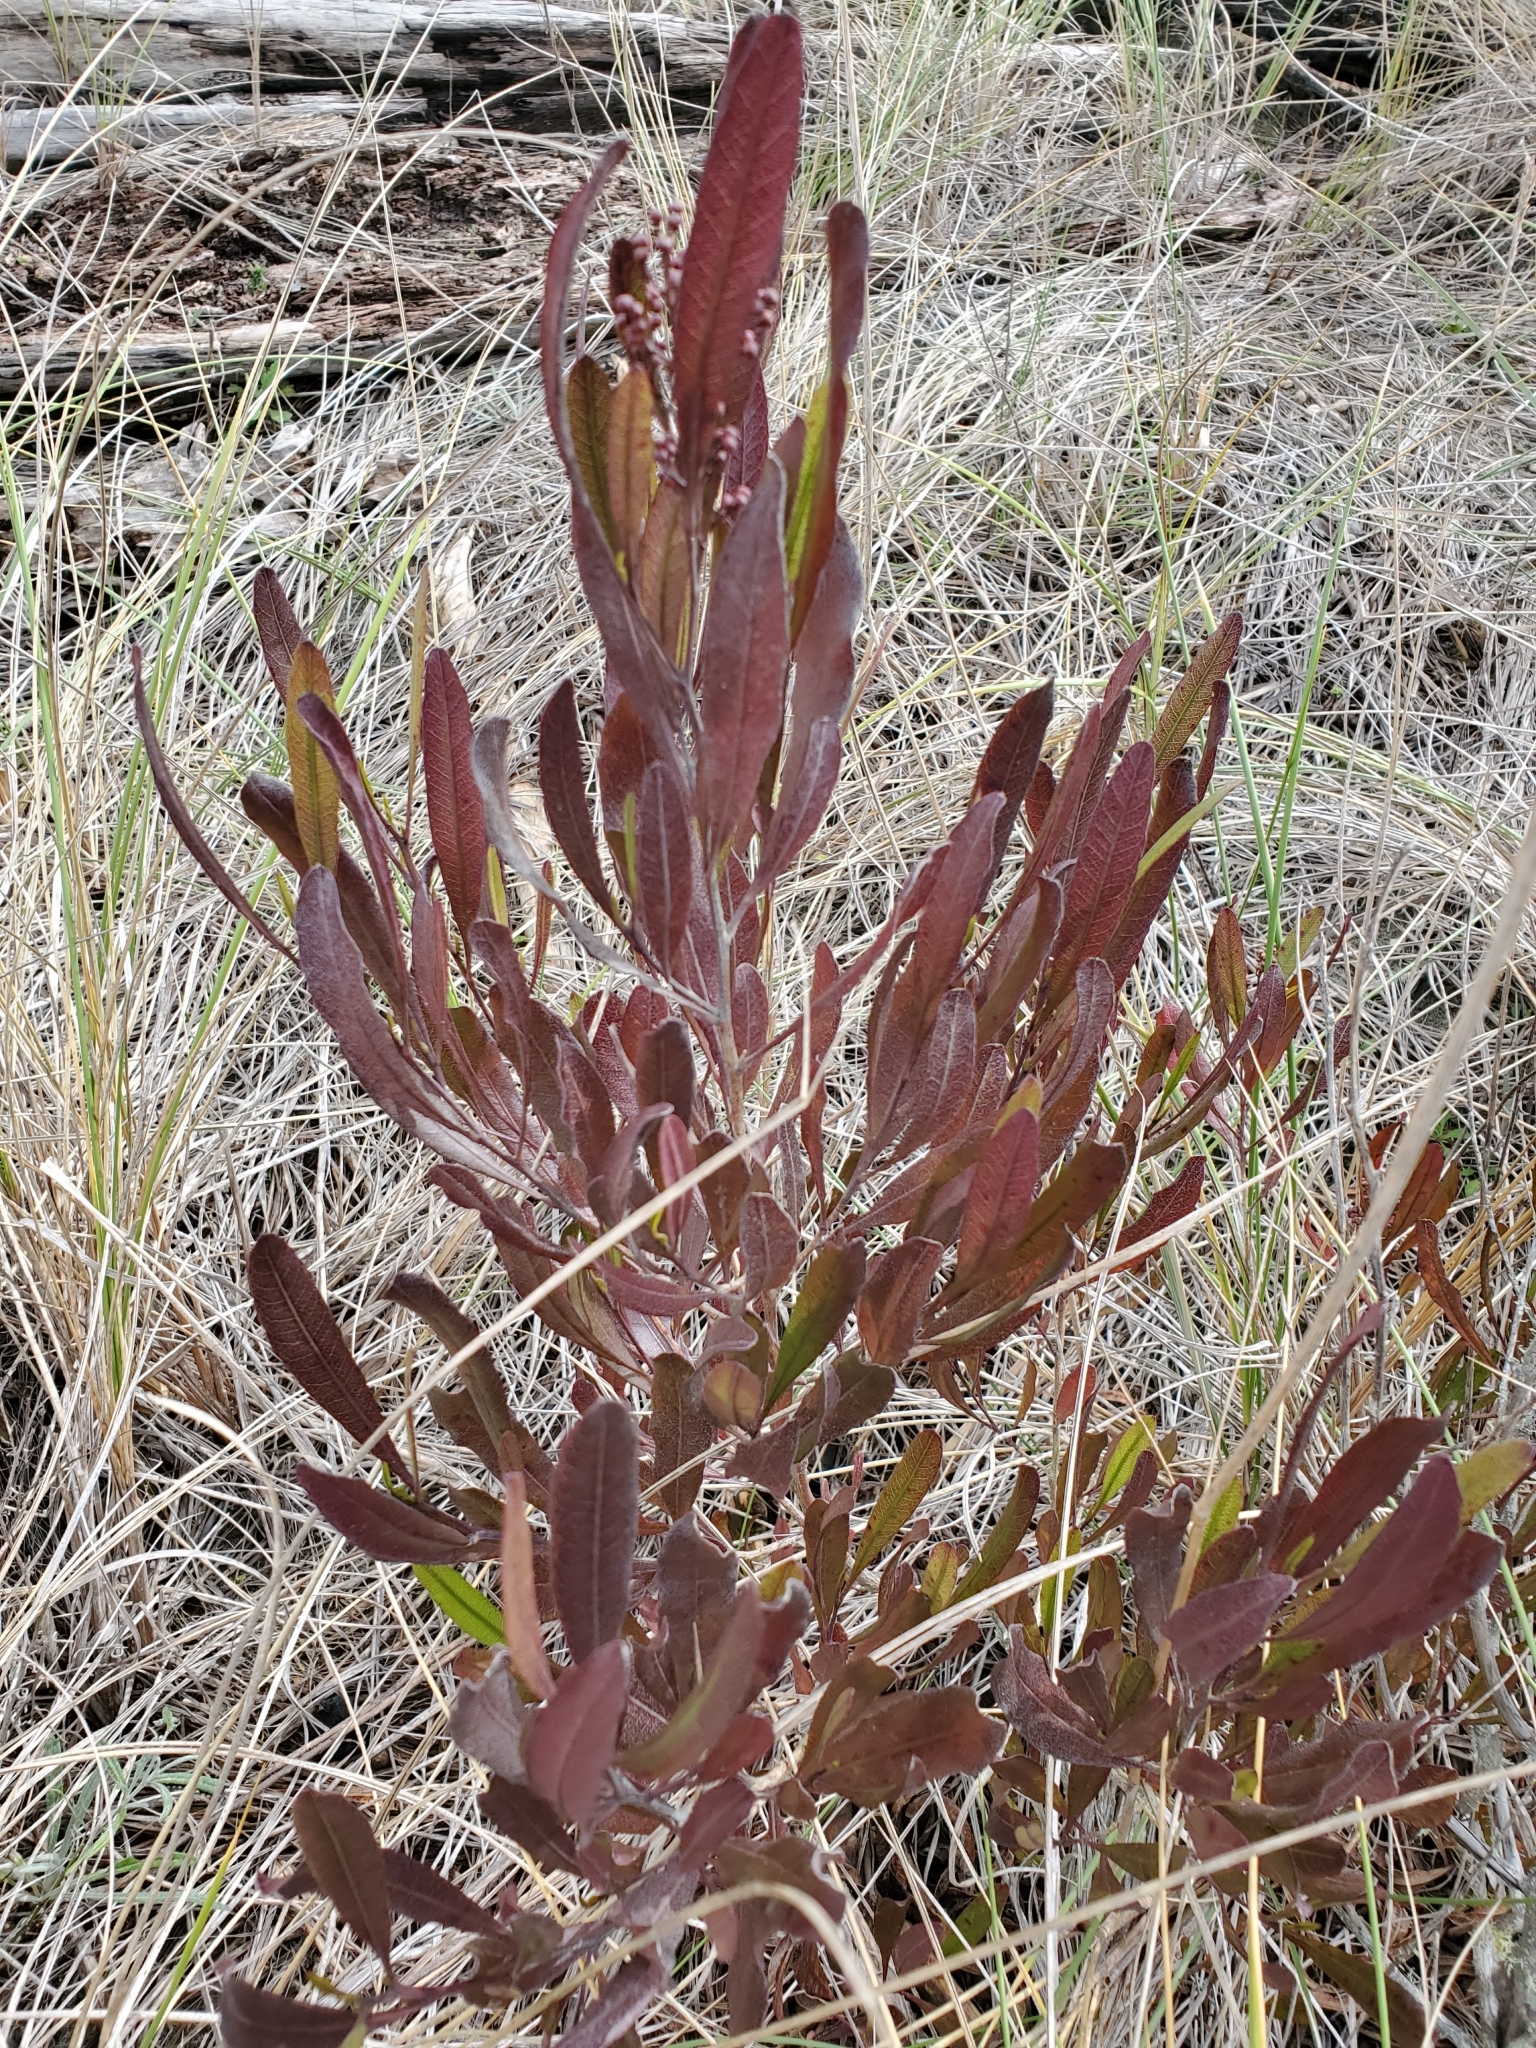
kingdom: Plantae
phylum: Tracheophyta
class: Magnoliopsida
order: Sapindales
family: Sapindaceae
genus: Dodonaea
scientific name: Dodonaea viscosa
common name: Hopbush
